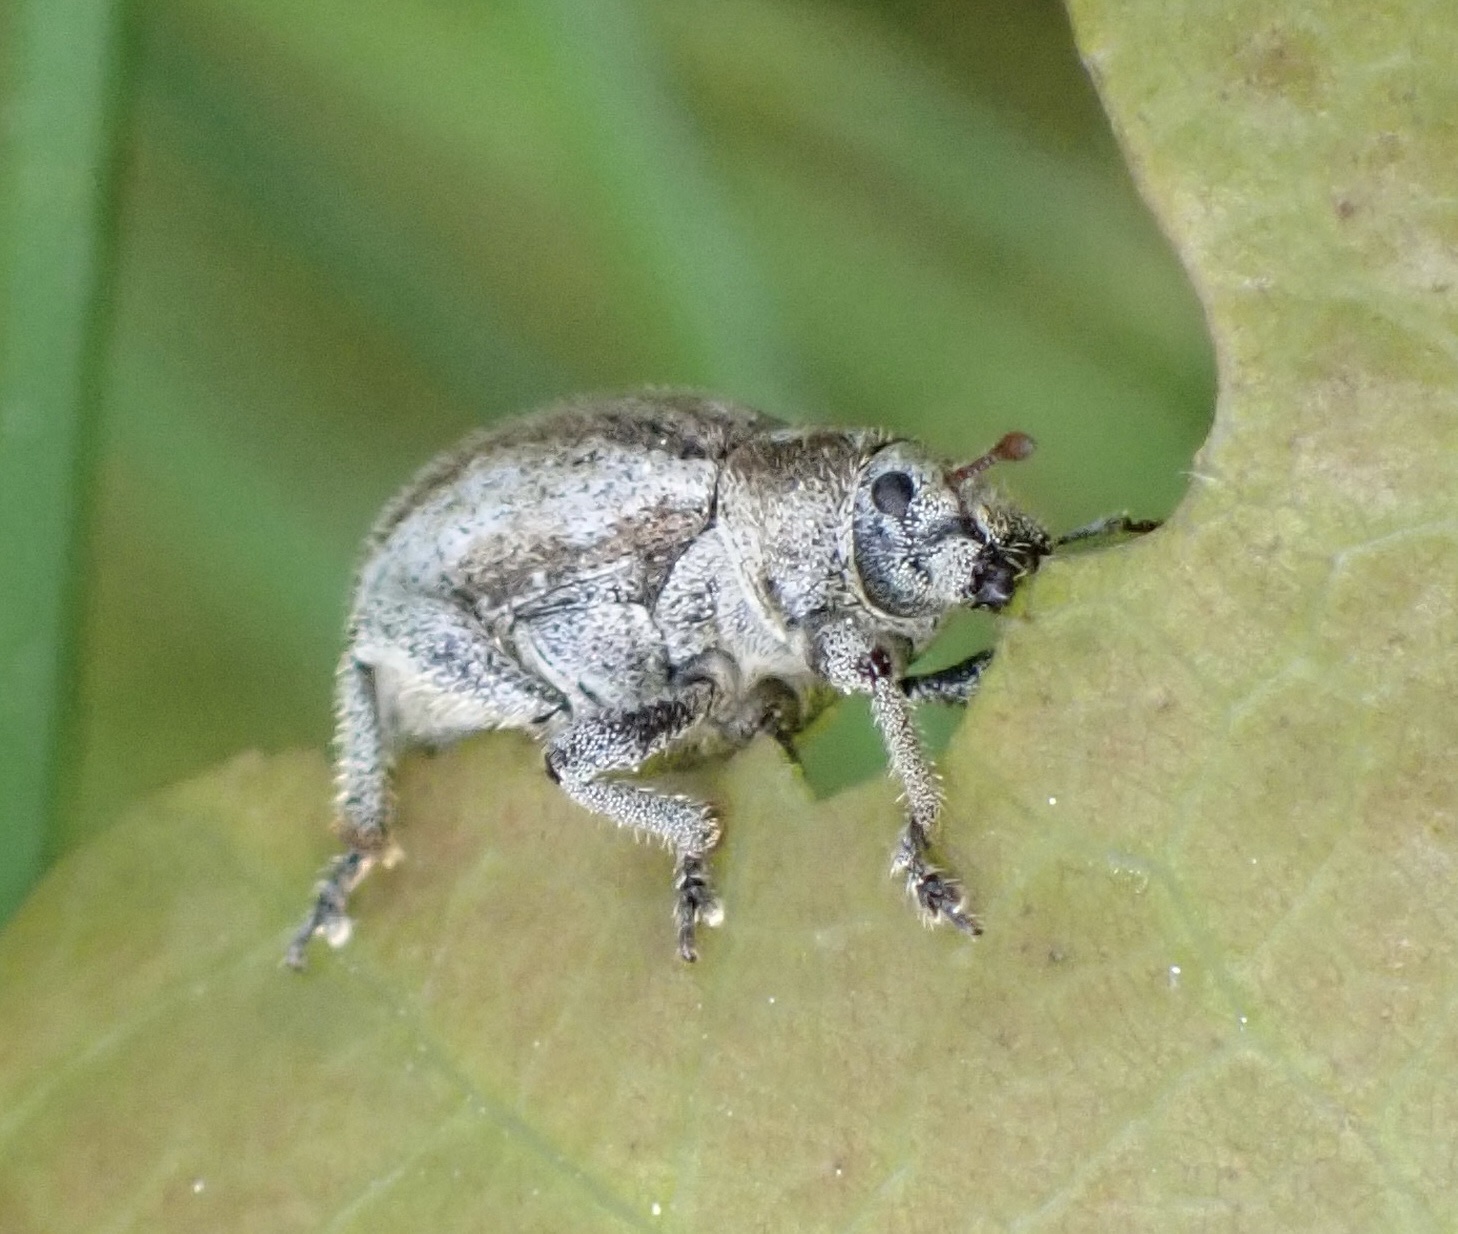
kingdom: Animalia
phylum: Arthropoda
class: Insecta
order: Coleoptera
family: Curculionidae
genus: Philopedon
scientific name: Philopedon plagiatum
